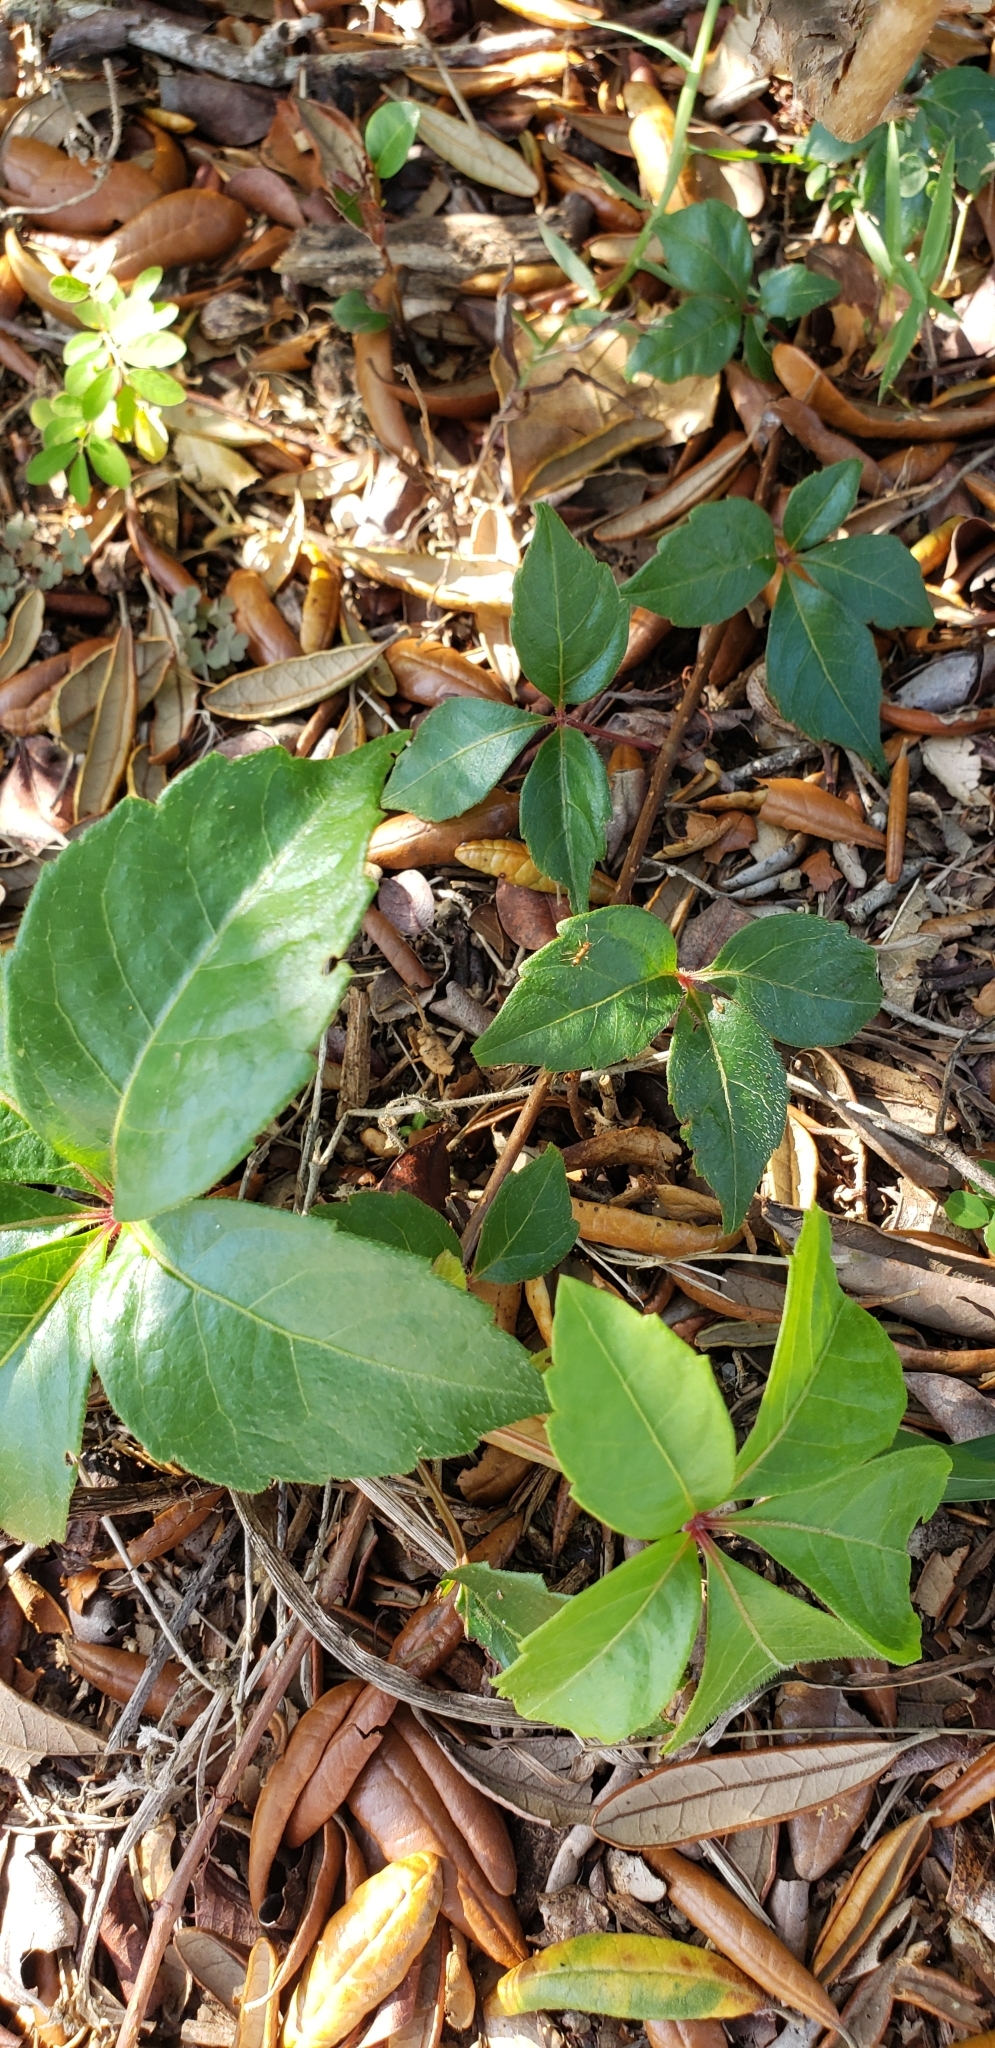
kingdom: Plantae
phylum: Tracheophyta
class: Magnoliopsida
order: Vitales
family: Vitaceae
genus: Parthenocissus
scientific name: Parthenocissus quinquefolia
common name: Virginia-creeper
